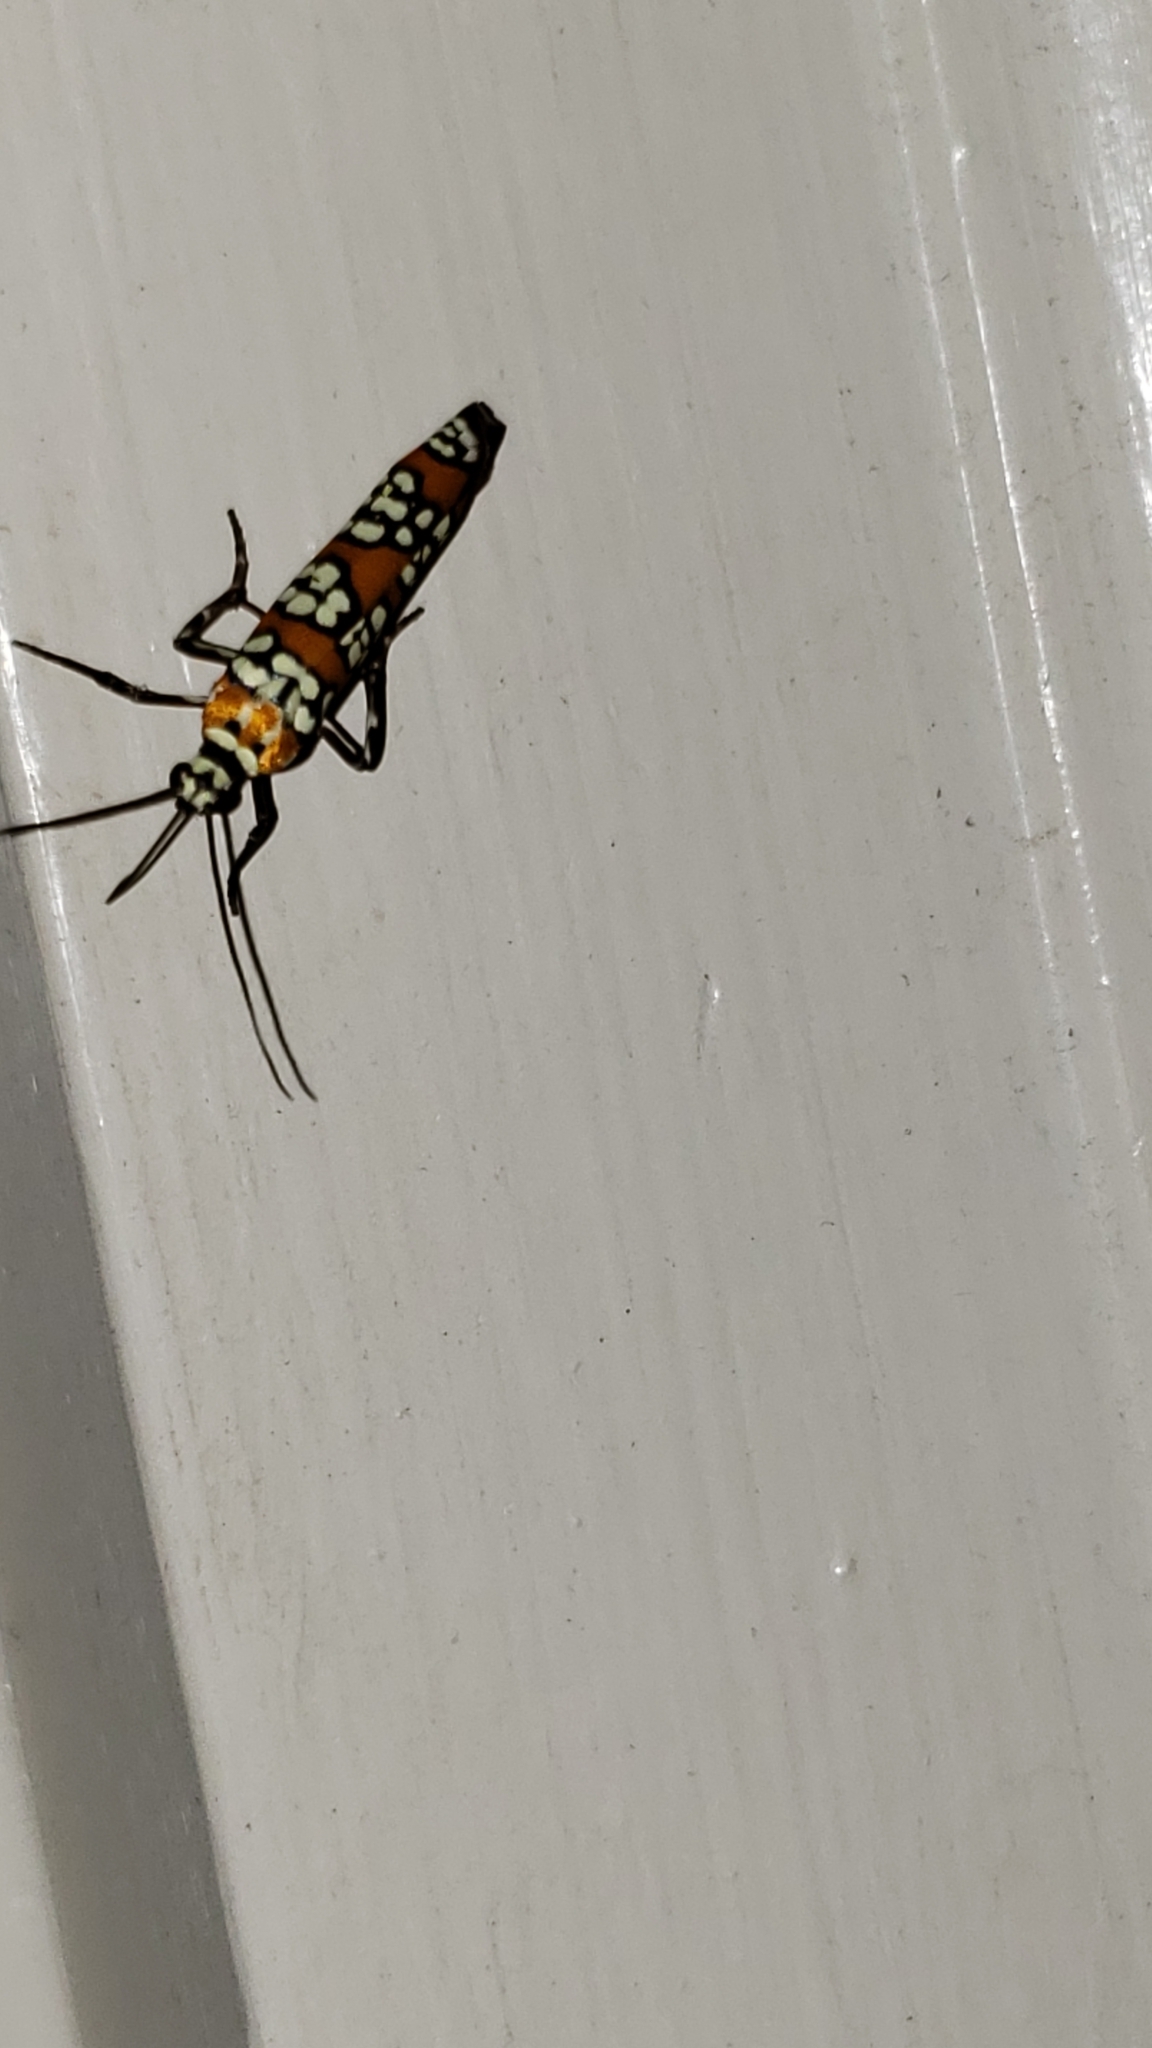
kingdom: Animalia
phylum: Arthropoda
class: Insecta
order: Lepidoptera
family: Attevidae
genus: Atteva
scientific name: Atteva punctella
